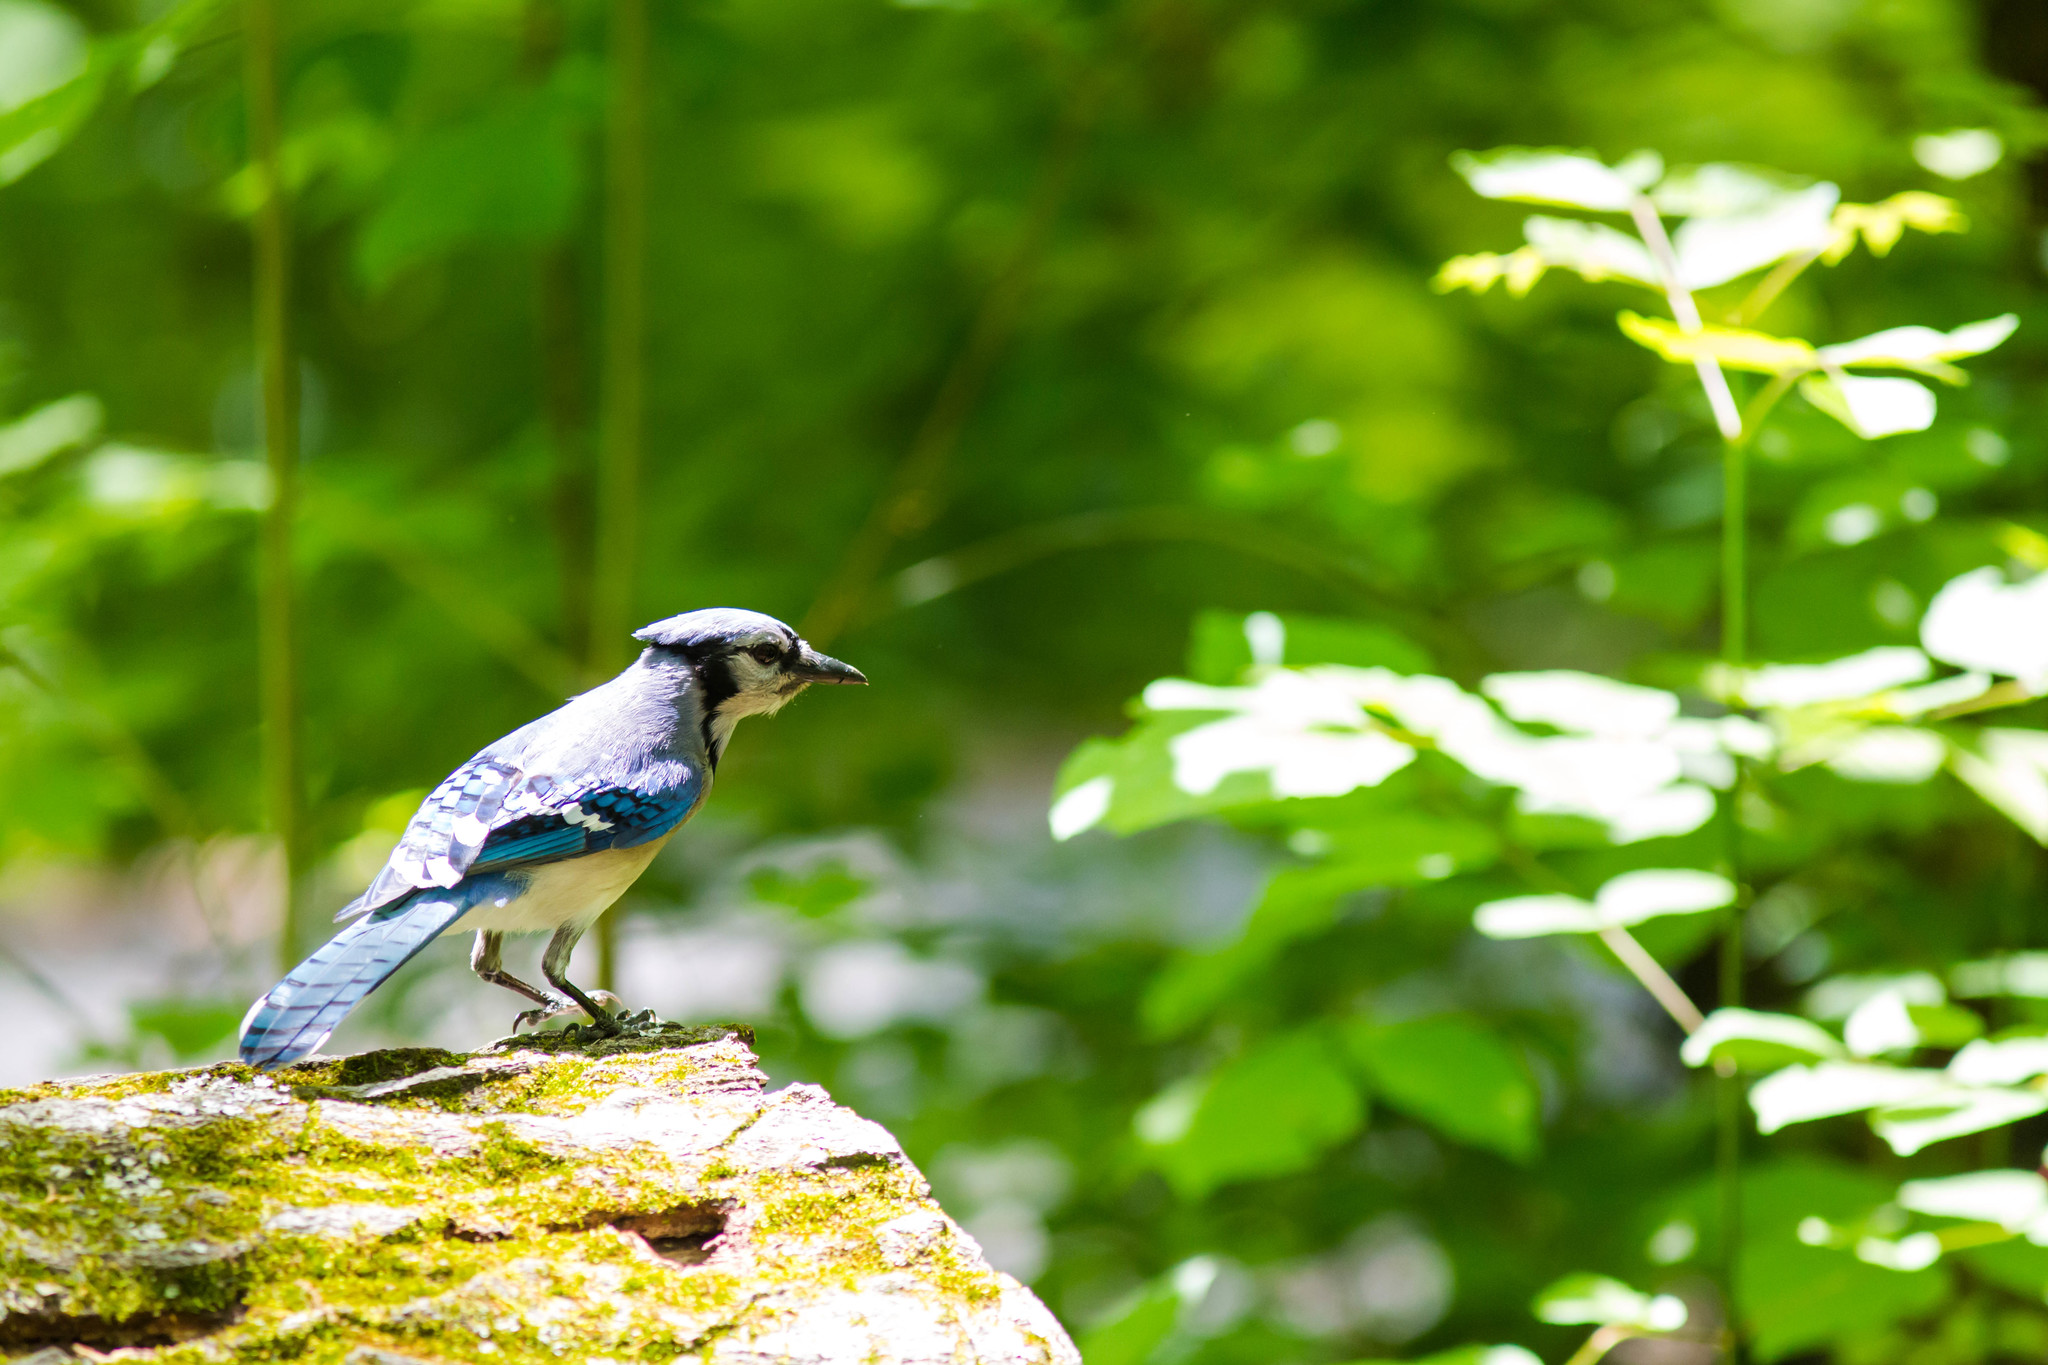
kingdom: Animalia
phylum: Chordata
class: Aves
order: Passeriformes
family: Corvidae
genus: Cyanocitta
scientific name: Cyanocitta cristata
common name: Blue jay
